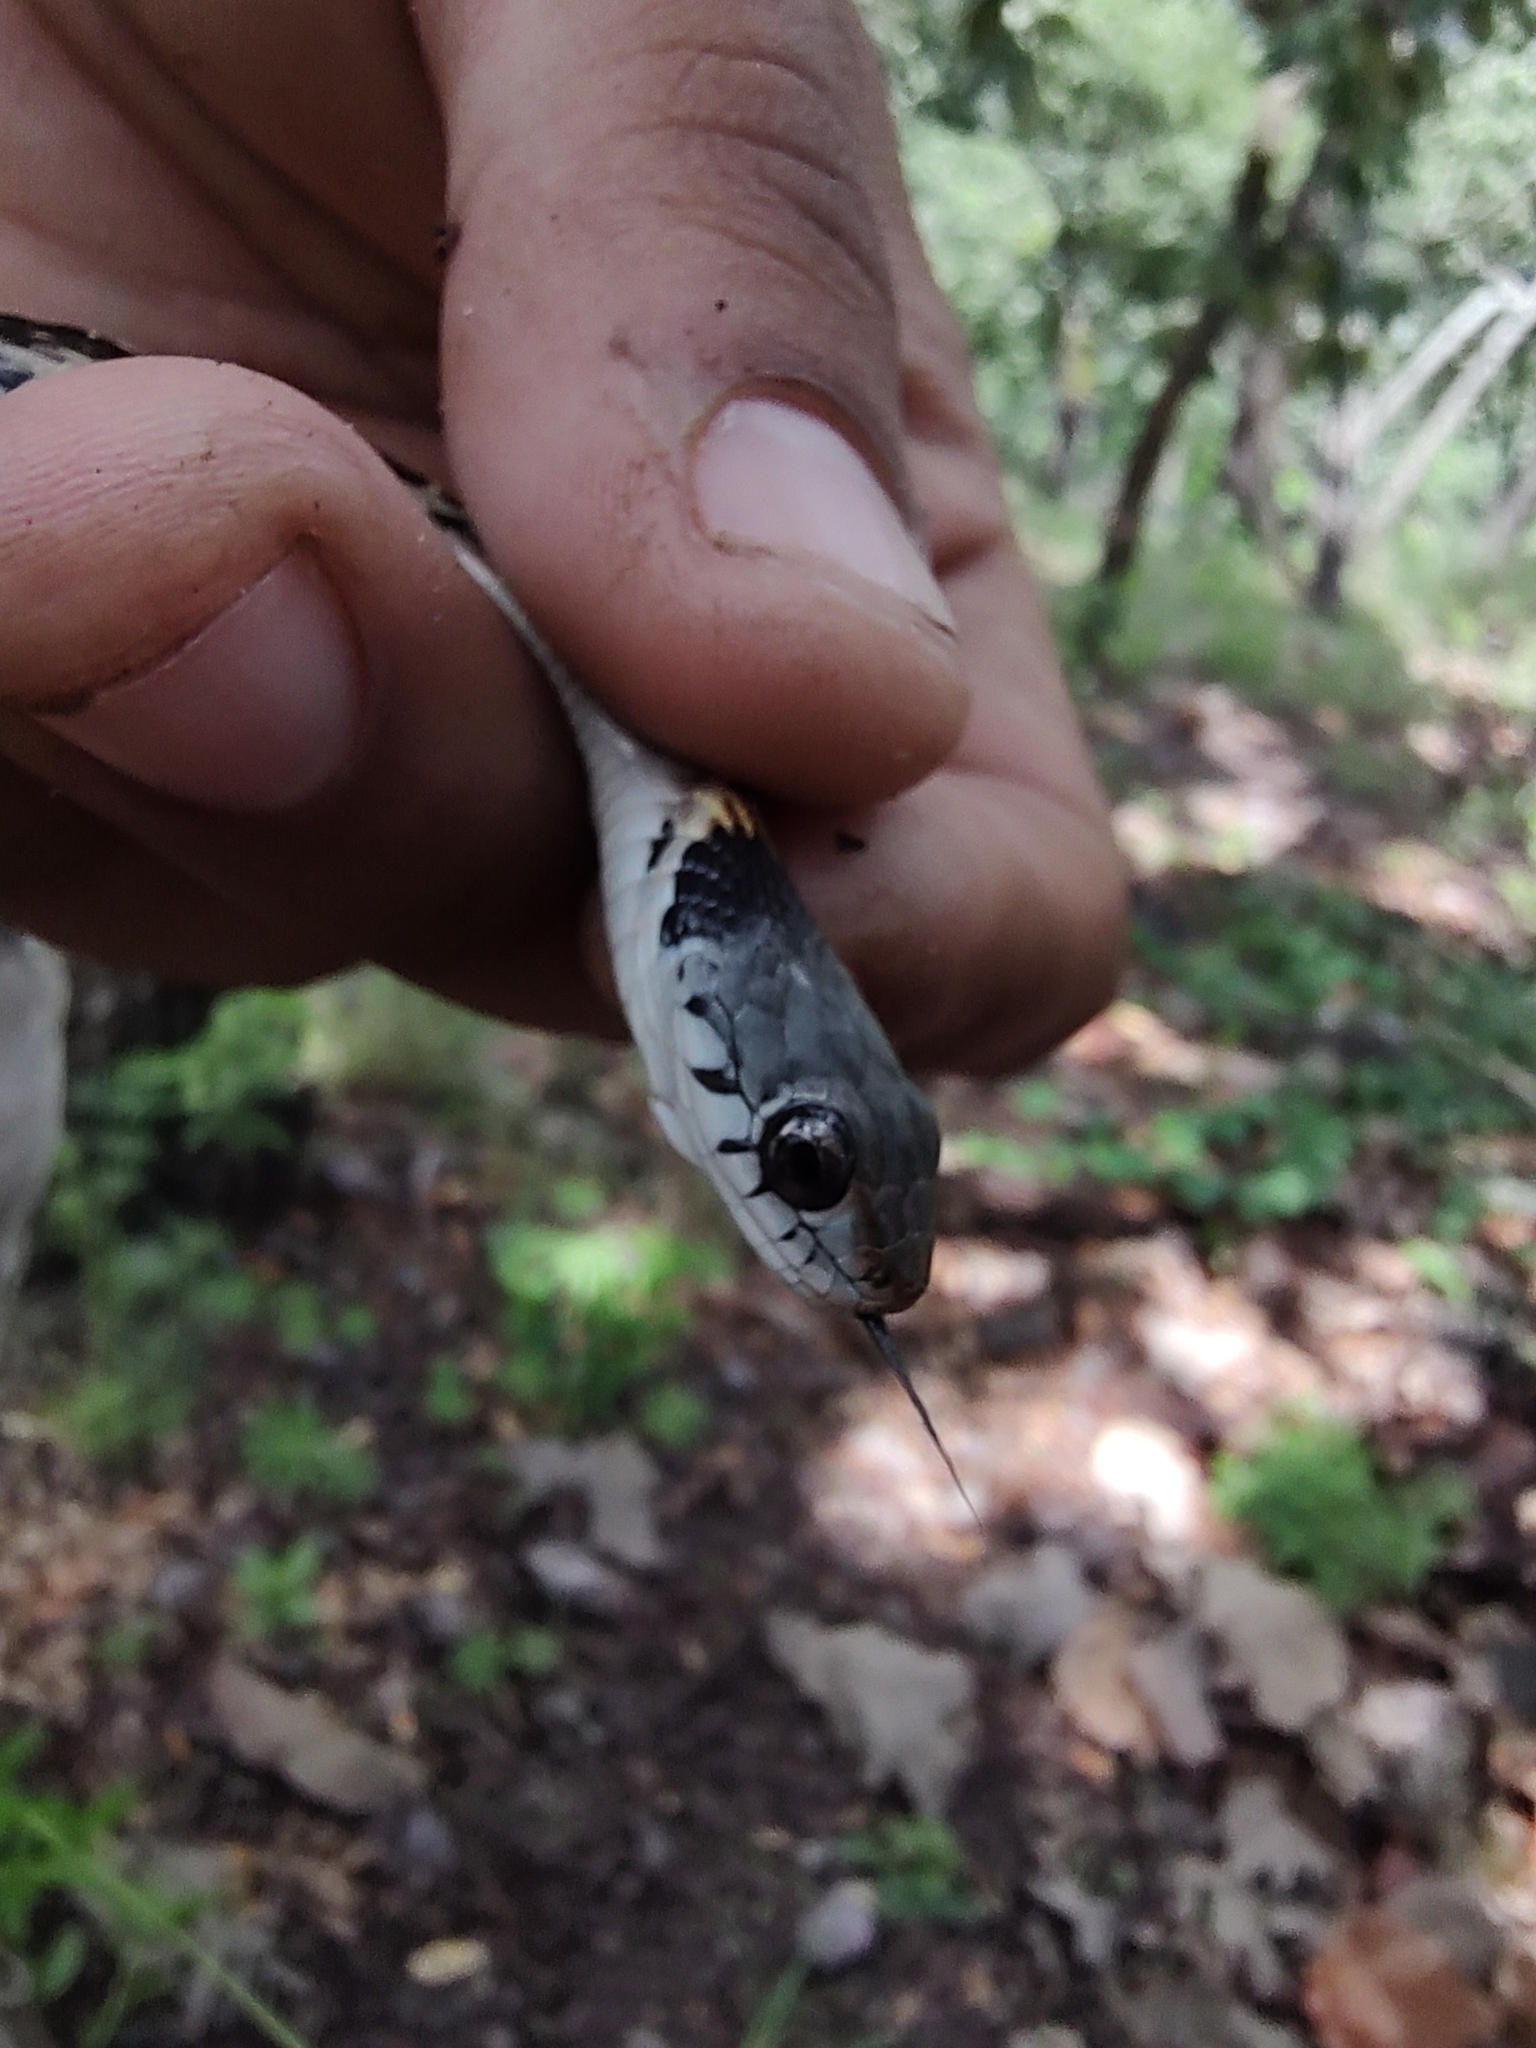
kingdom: Animalia
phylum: Chordata
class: Squamata
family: Colubridae
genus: Thamnophis
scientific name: Thamnophis cyrtopsis
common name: Black-necked gartersnake
